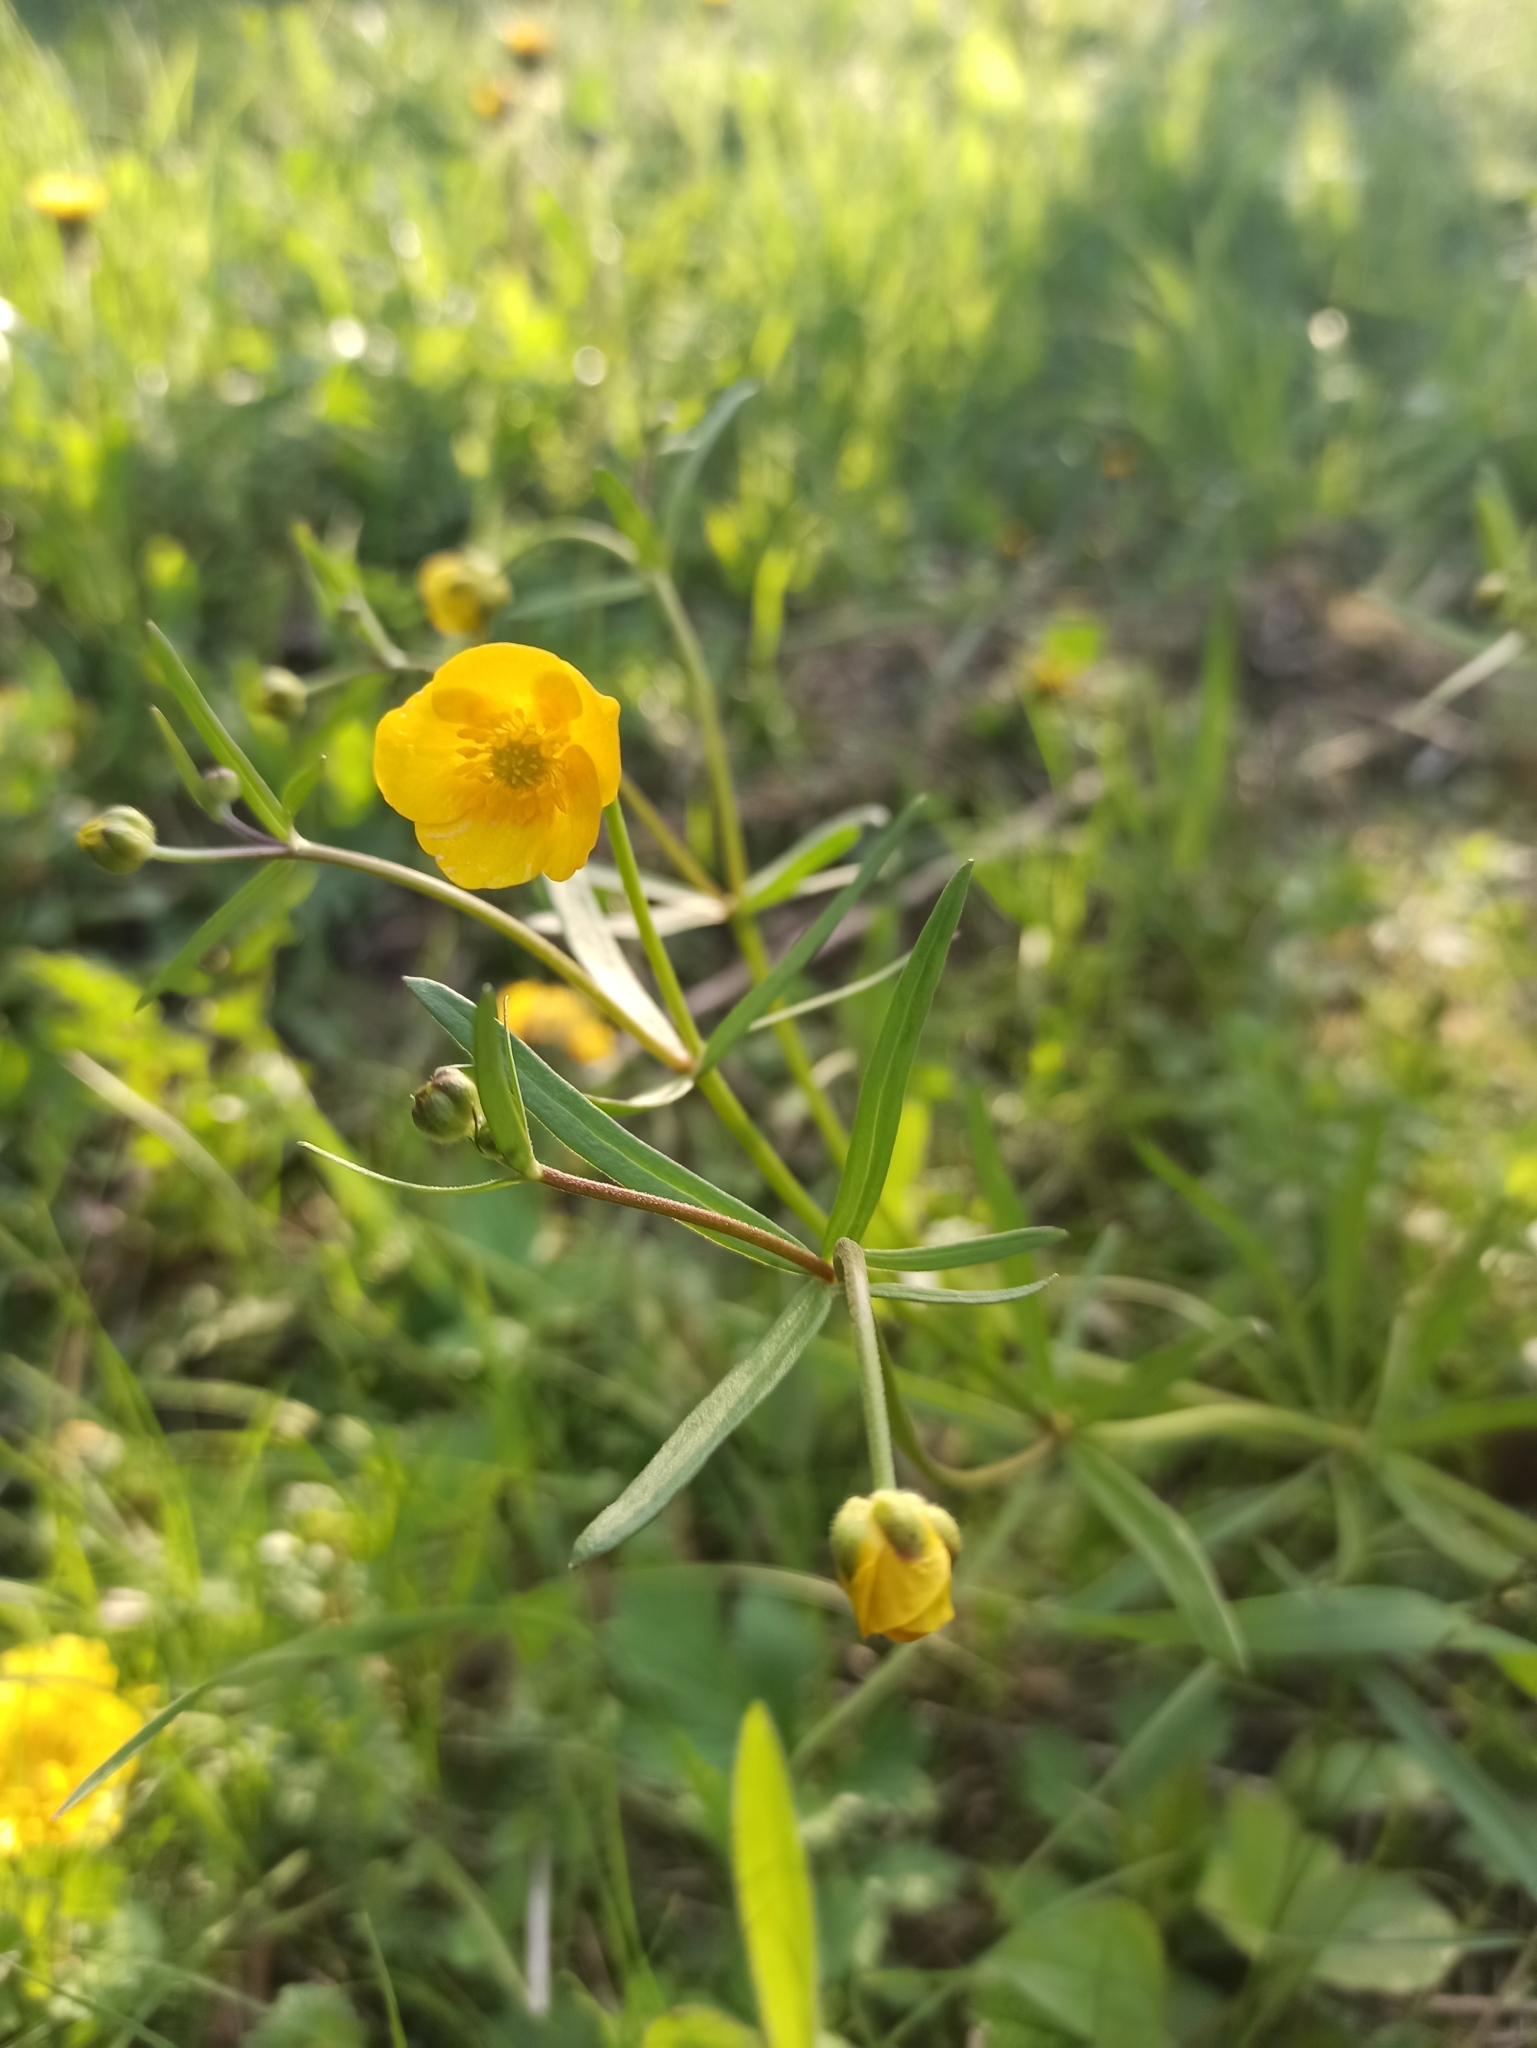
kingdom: Plantae
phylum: Tracheophyta
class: Magnoliopsida
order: Ranunculales
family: Ranunculaceae
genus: Ranunculus
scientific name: Ranunculus auricomus
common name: Goldilocks buttercup
